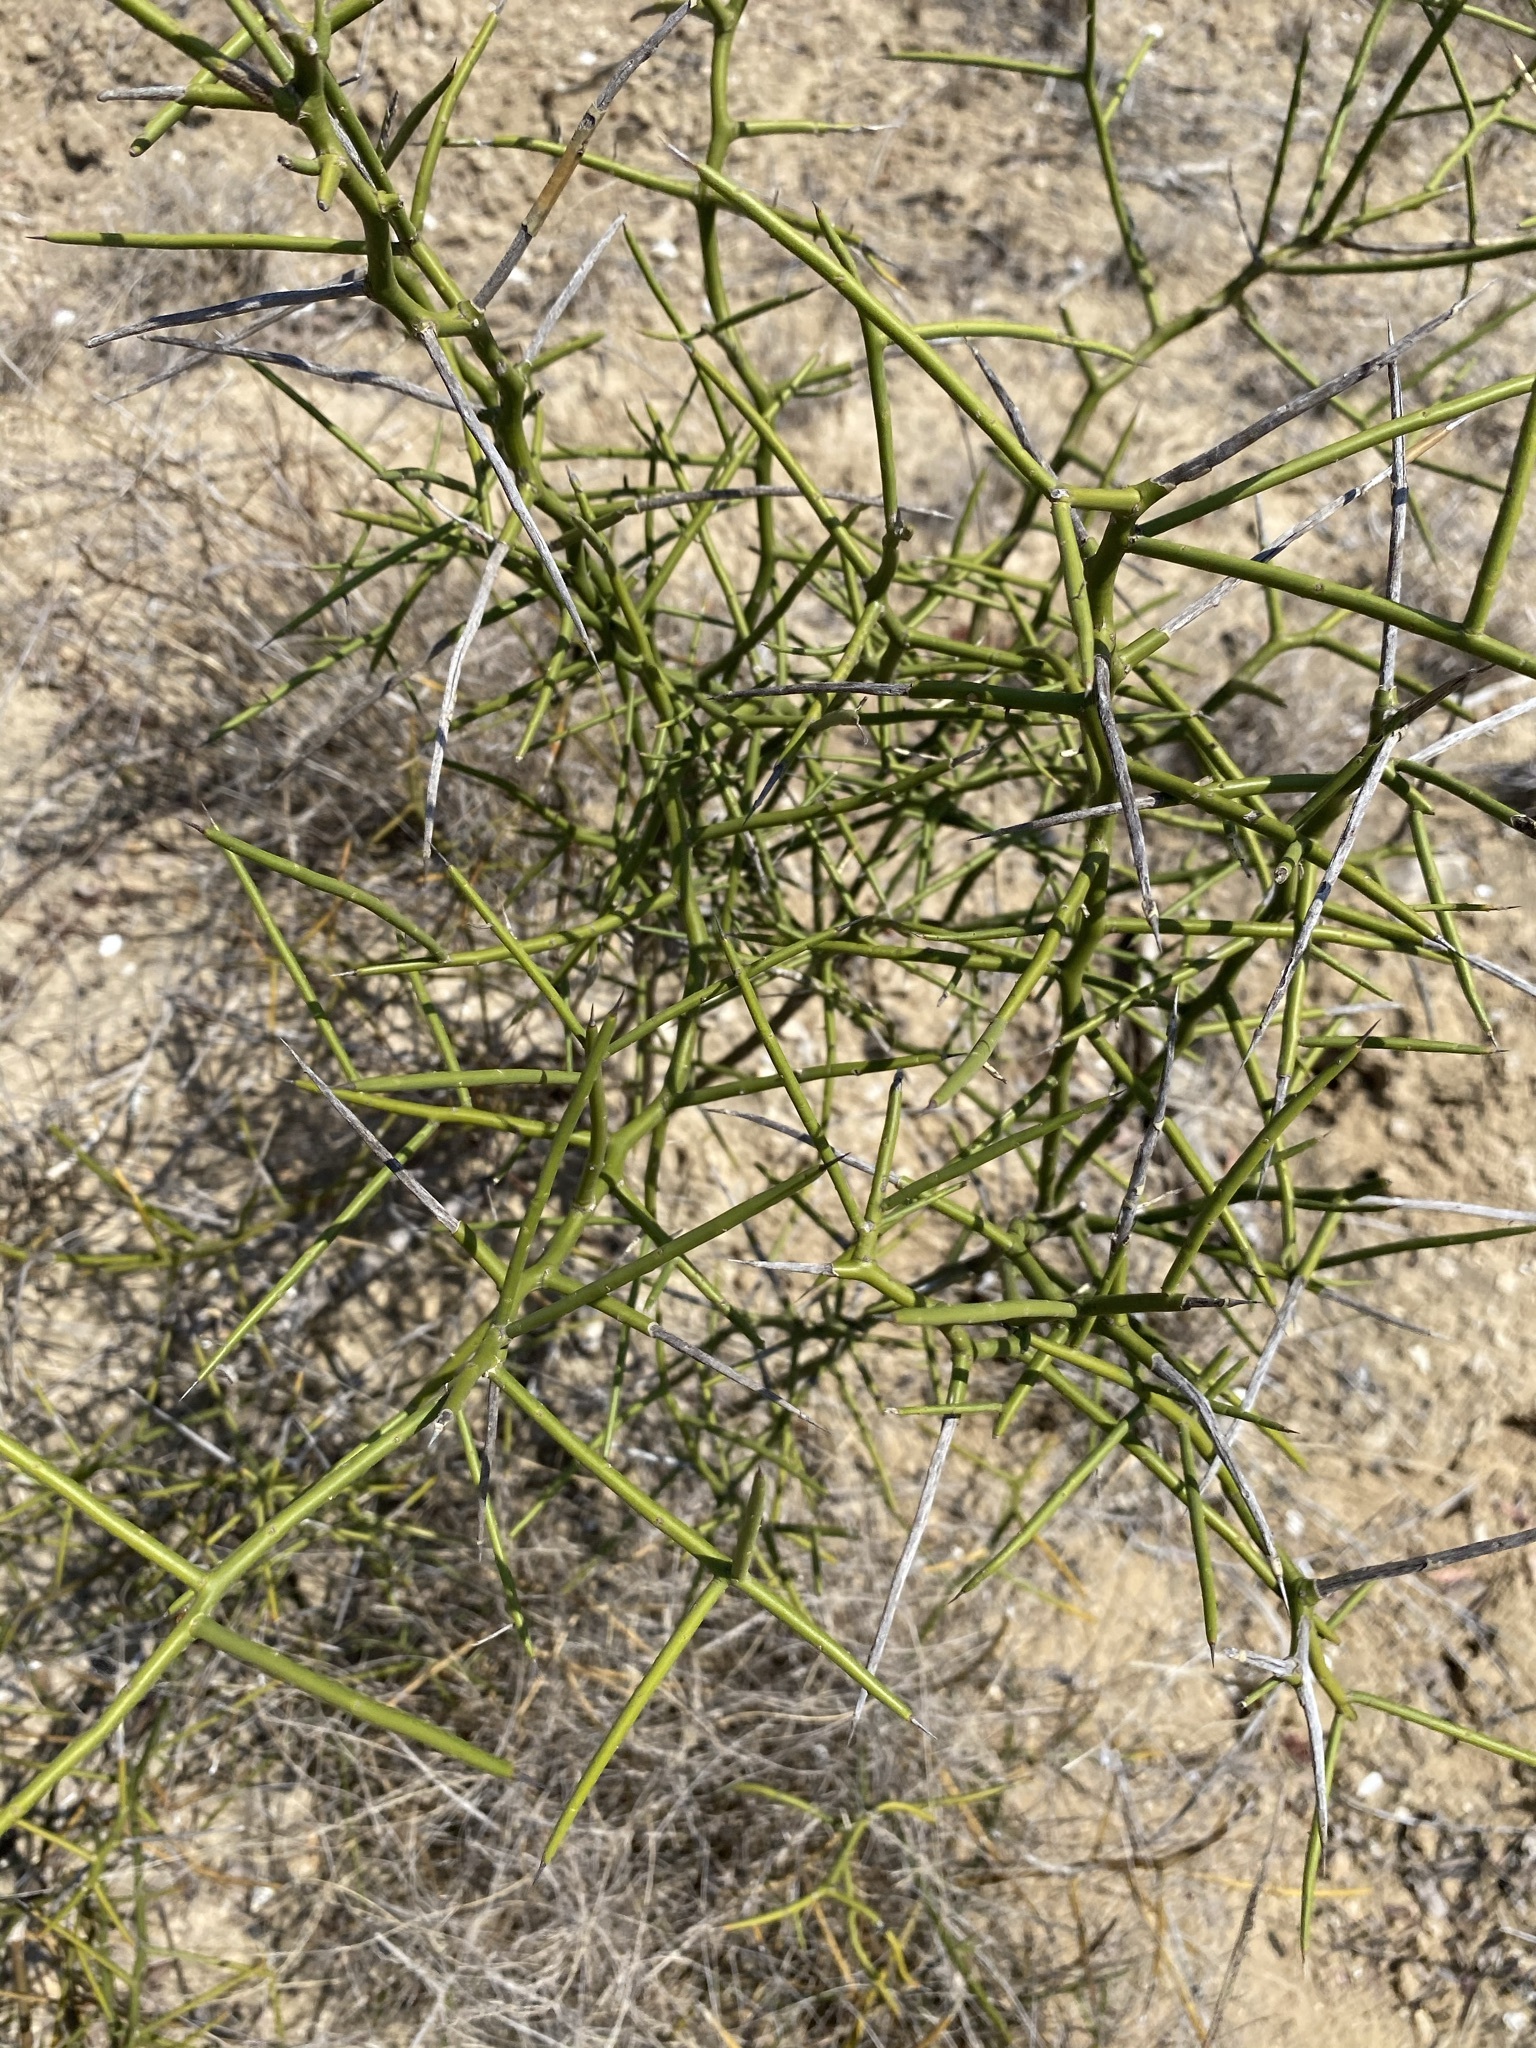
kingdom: Plantae
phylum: Tracheophyta
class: Magnoliopsida
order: Brassicales
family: Koeberliniaceae
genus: Koeberlinia
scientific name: Koeberlinia spinosa
